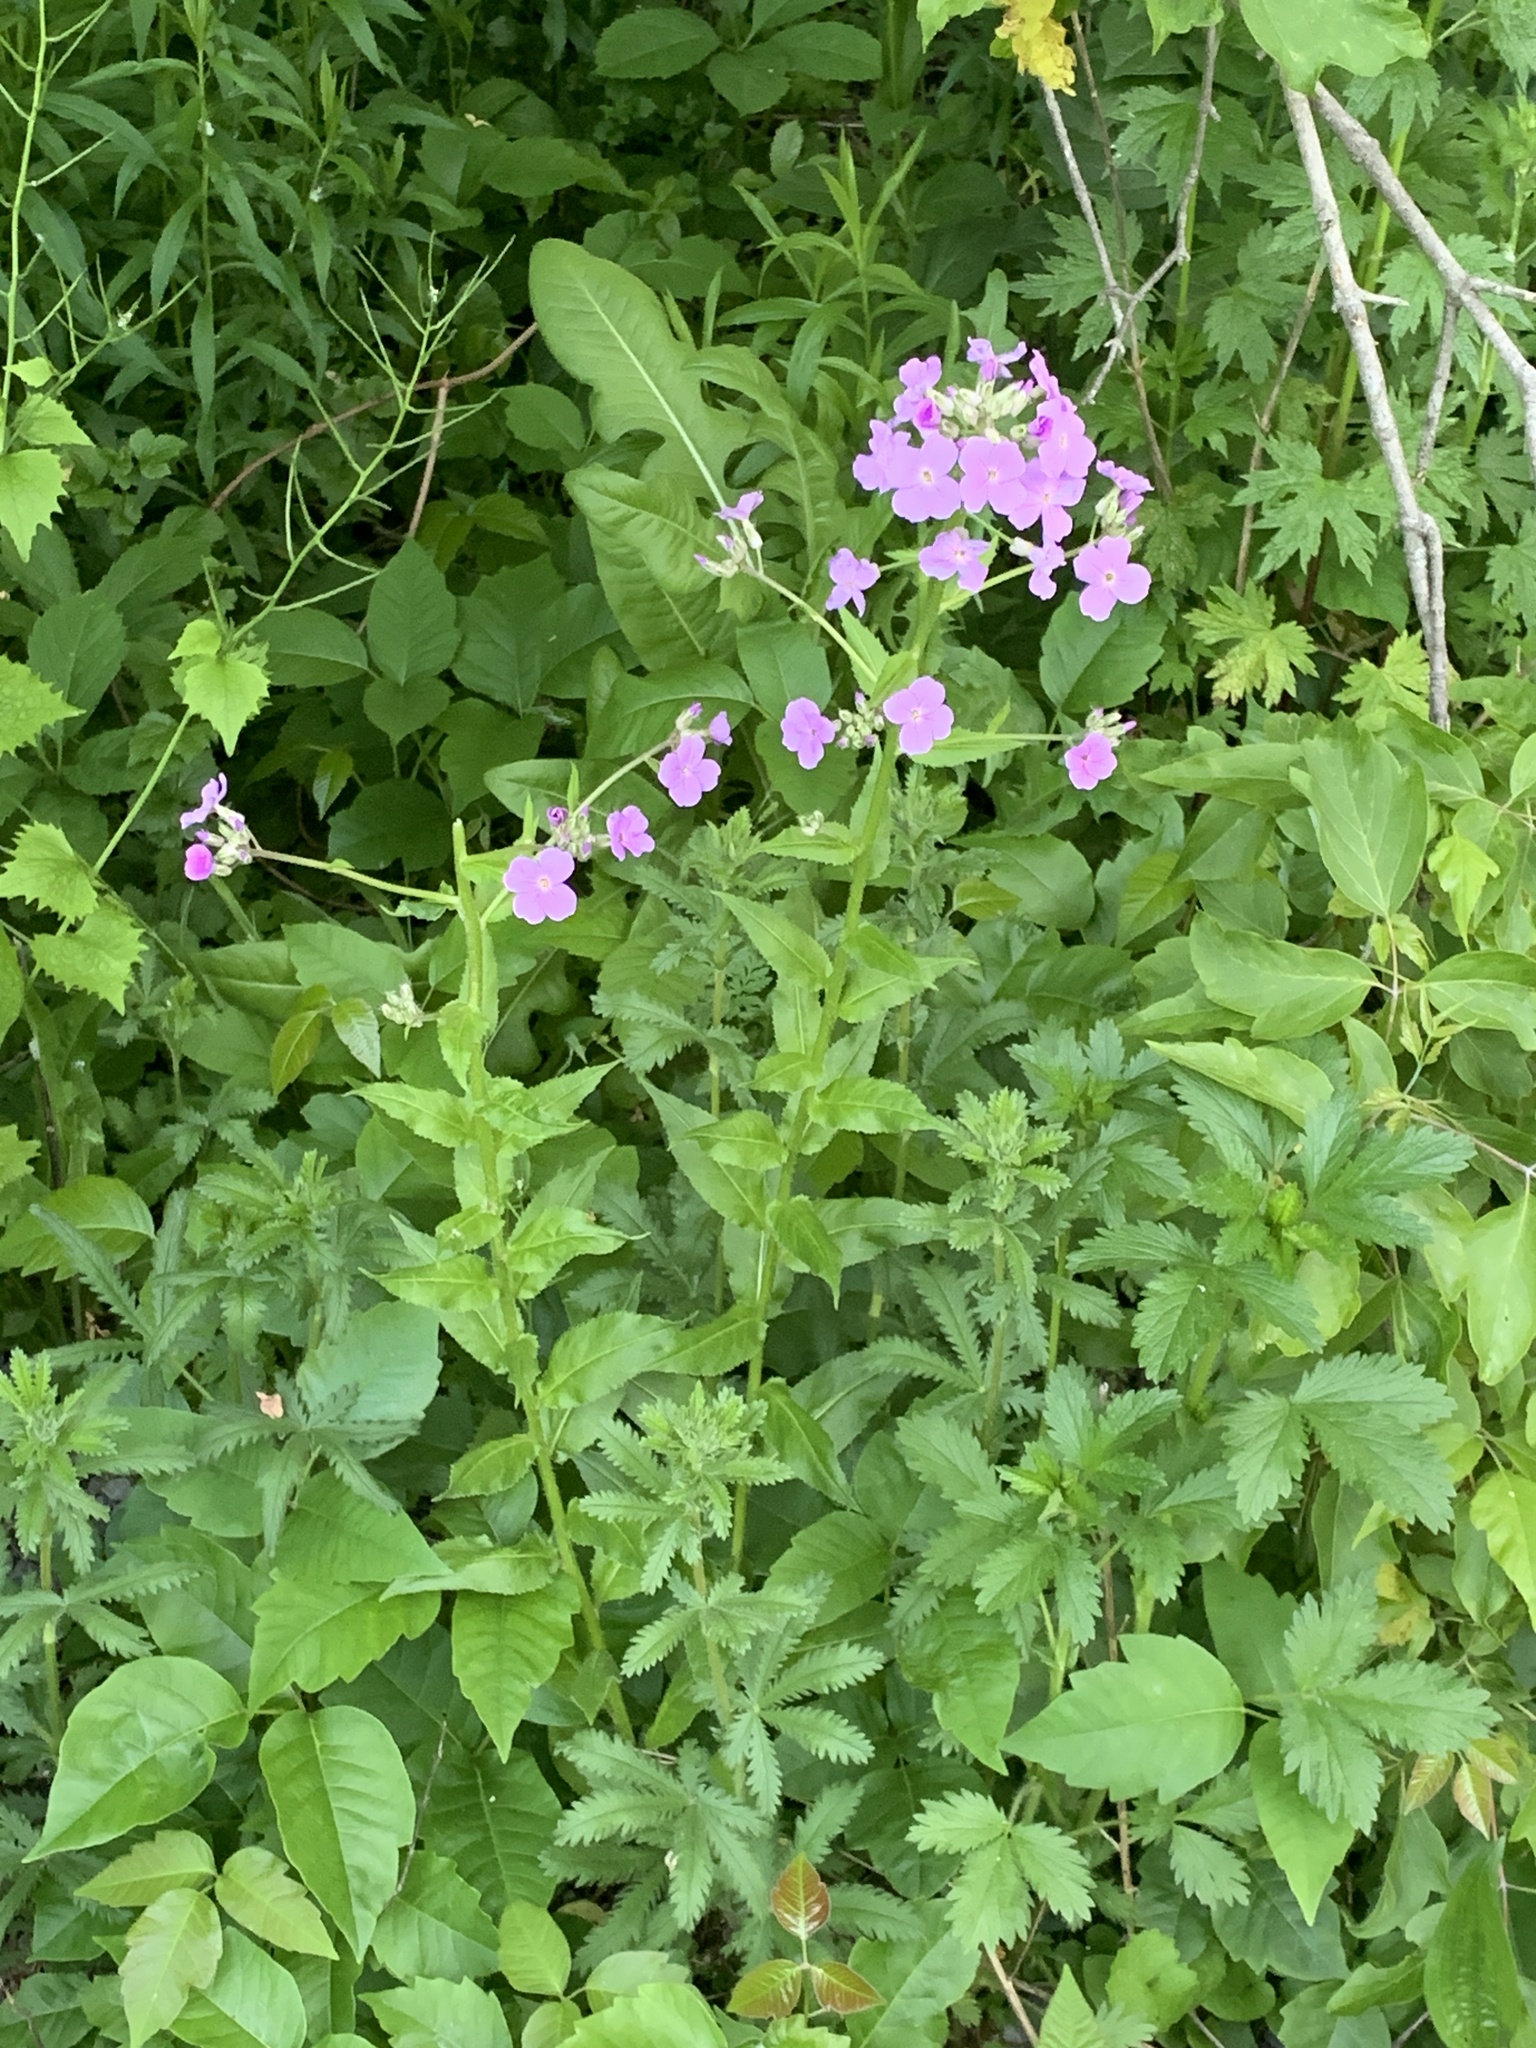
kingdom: Plantae
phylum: Tracheophyta
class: Magnoliopsida
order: Brassicales
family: Brassicaceae
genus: Hesperis
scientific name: Hesperis matronalis
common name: Dame's-violet
